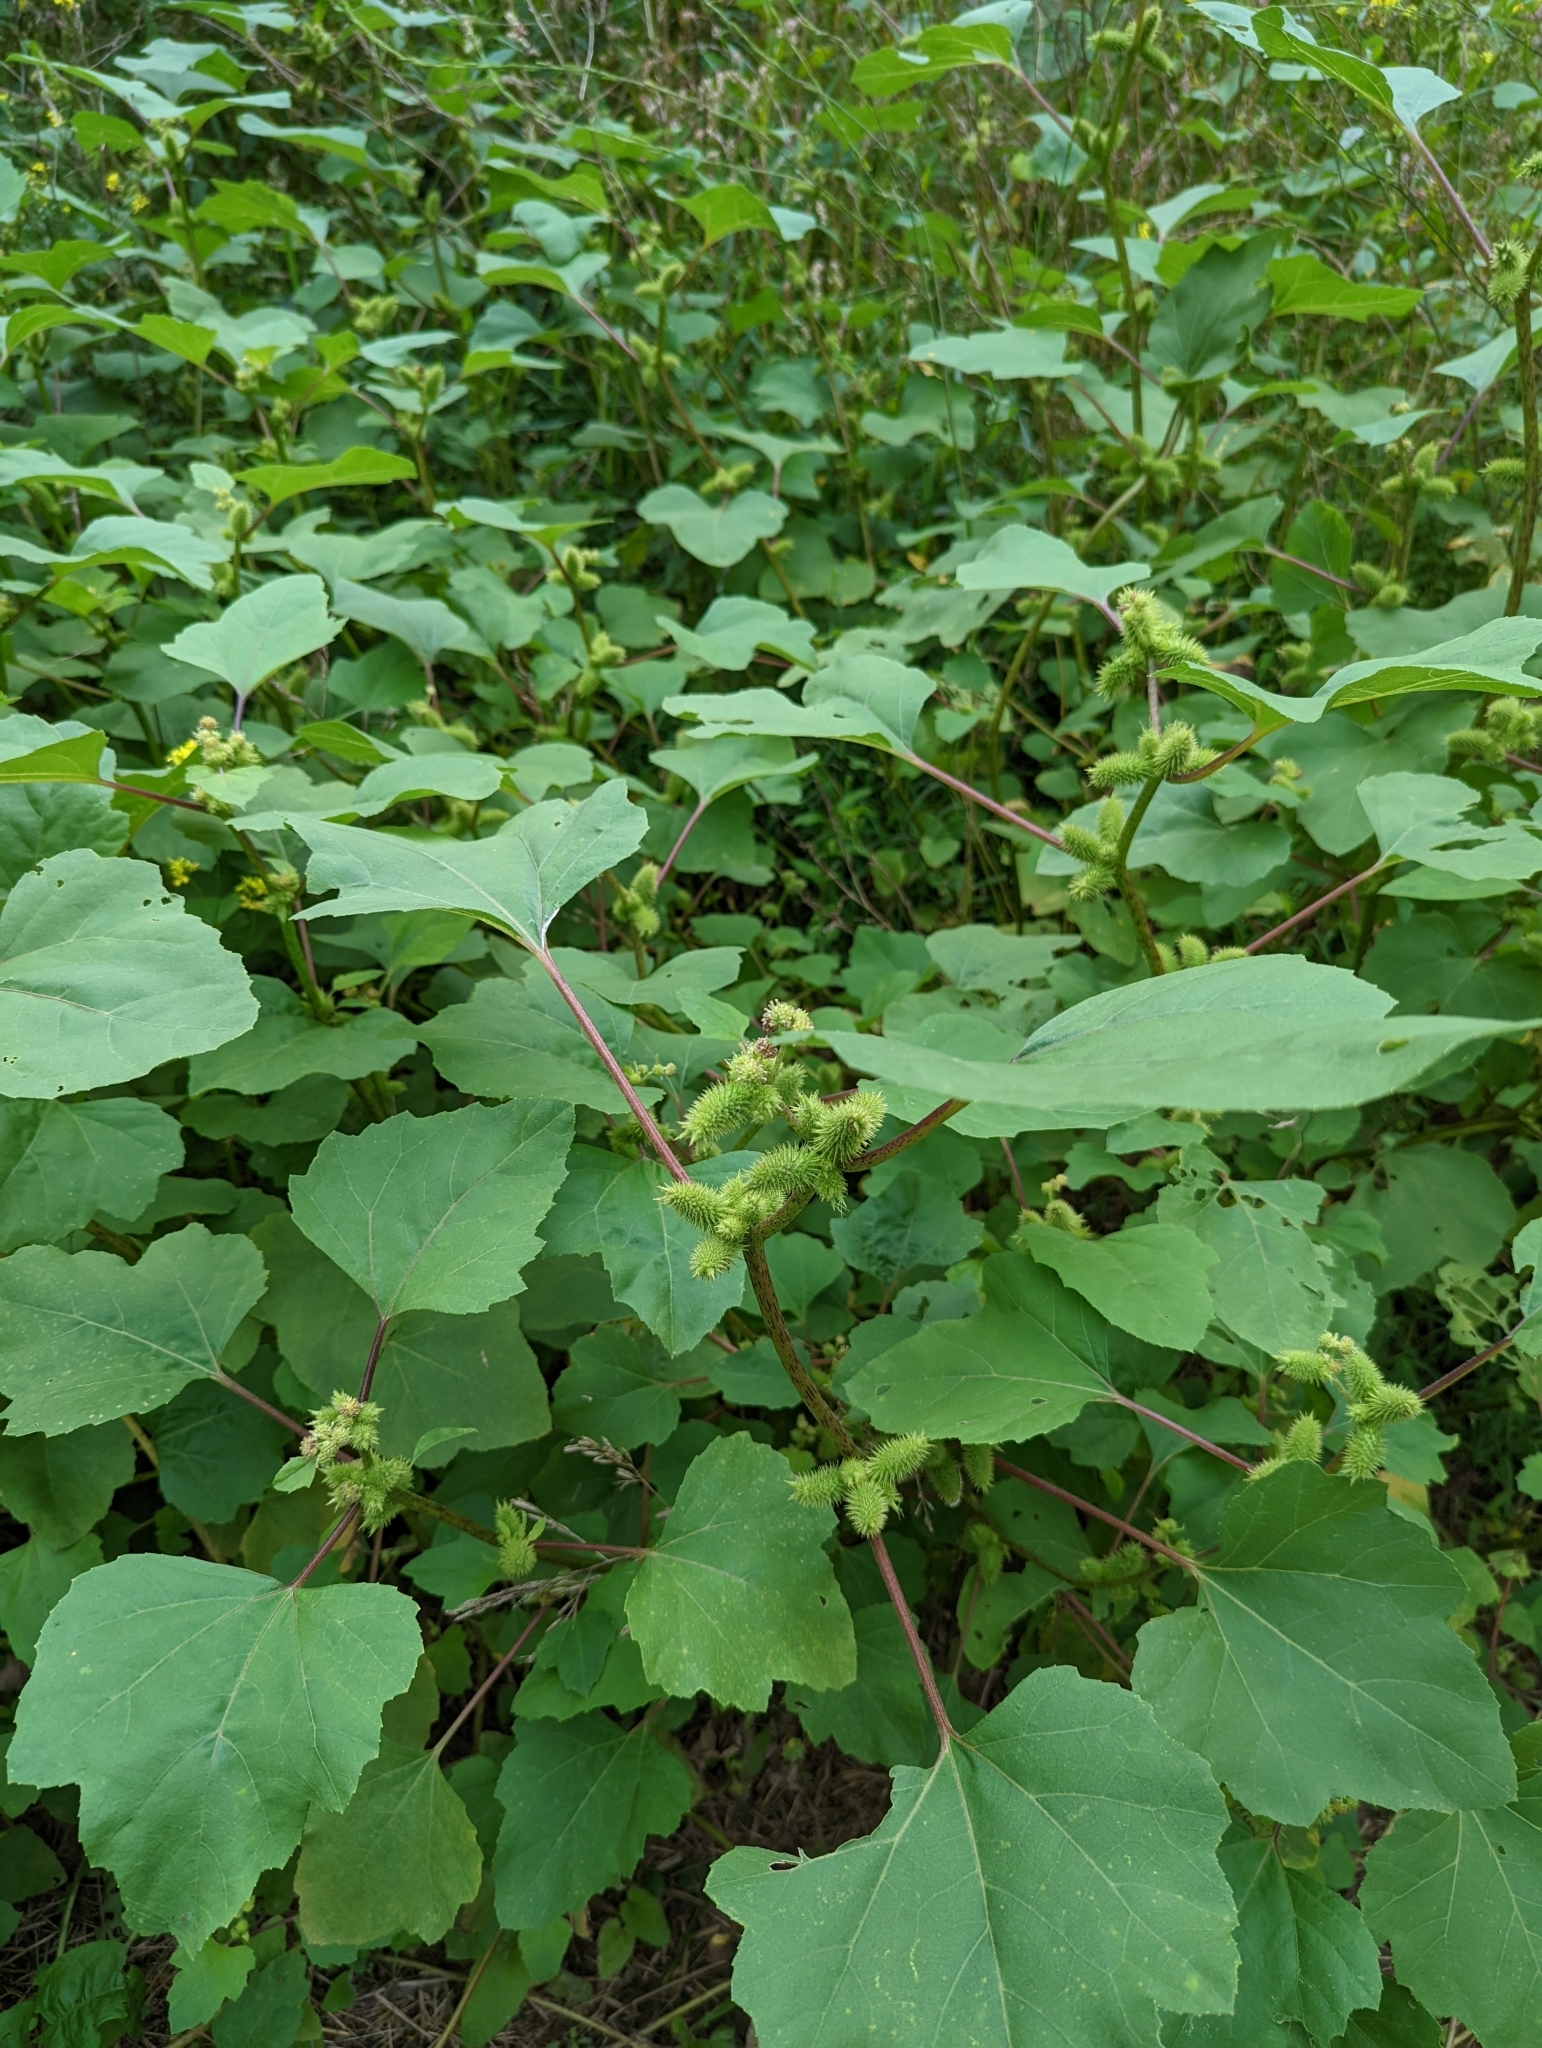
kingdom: Plantae
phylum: Tracheophyta
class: Magnoliopsida
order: Asterales
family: Asteraceae
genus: Xanthium
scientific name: Xanthium strumarium
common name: Rough cocklebur
